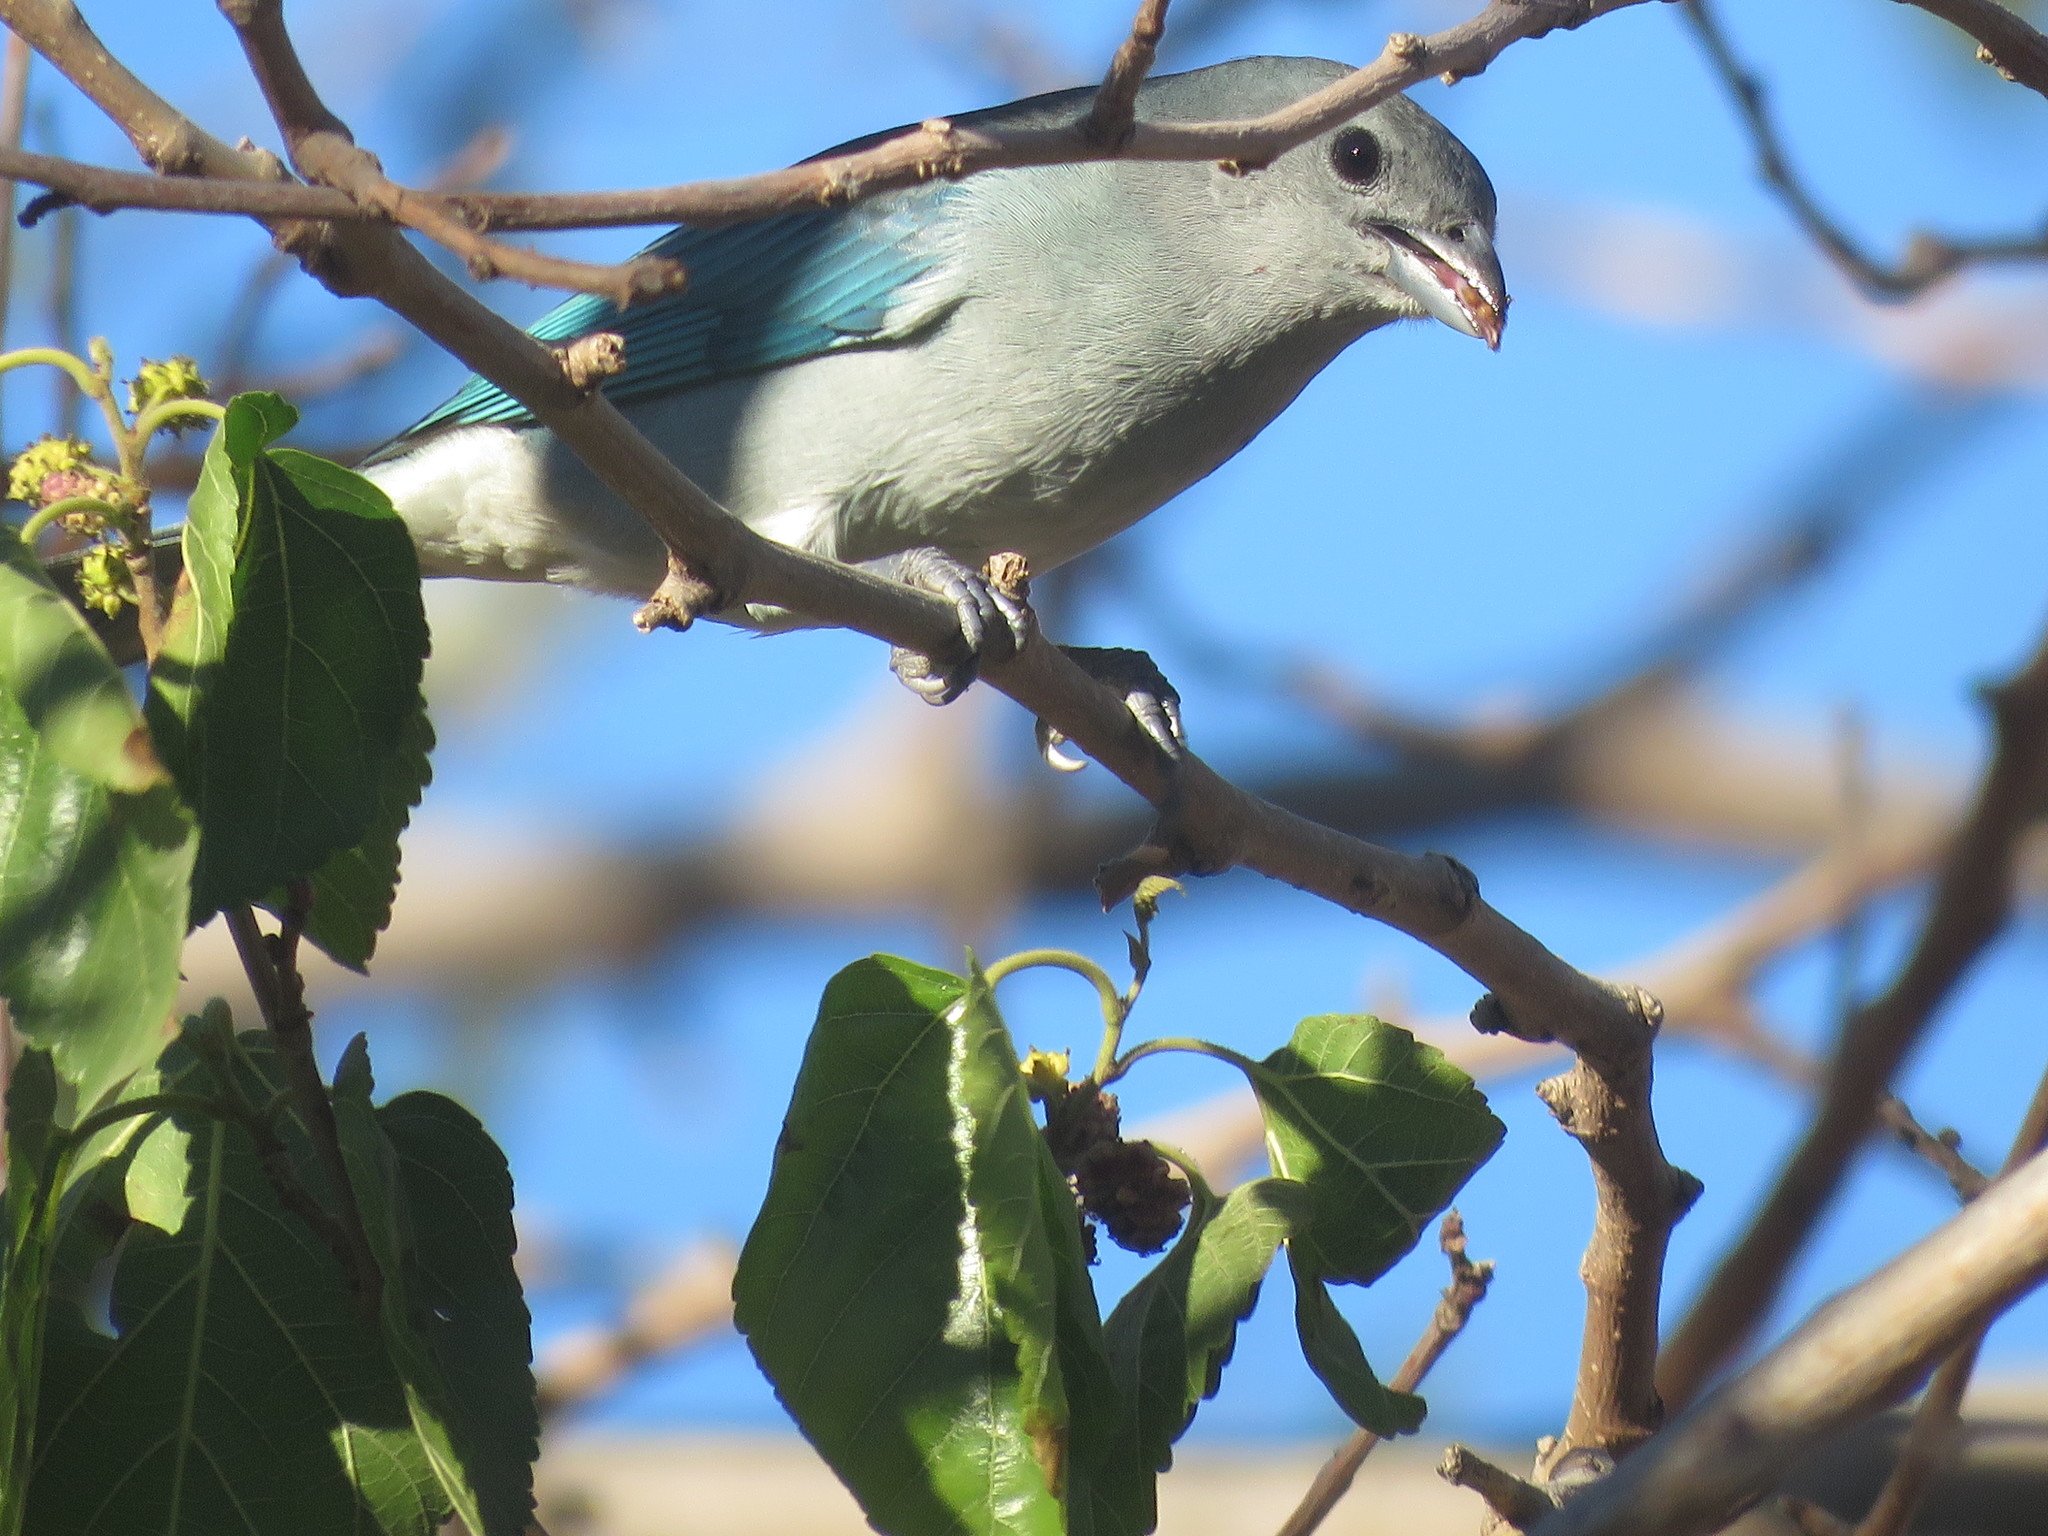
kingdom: Animalia
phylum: Chordata
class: Aves
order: Passeriformes
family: Thraupidae
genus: Thraupis
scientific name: Thraupis sayaca
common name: Sayaca tanager
